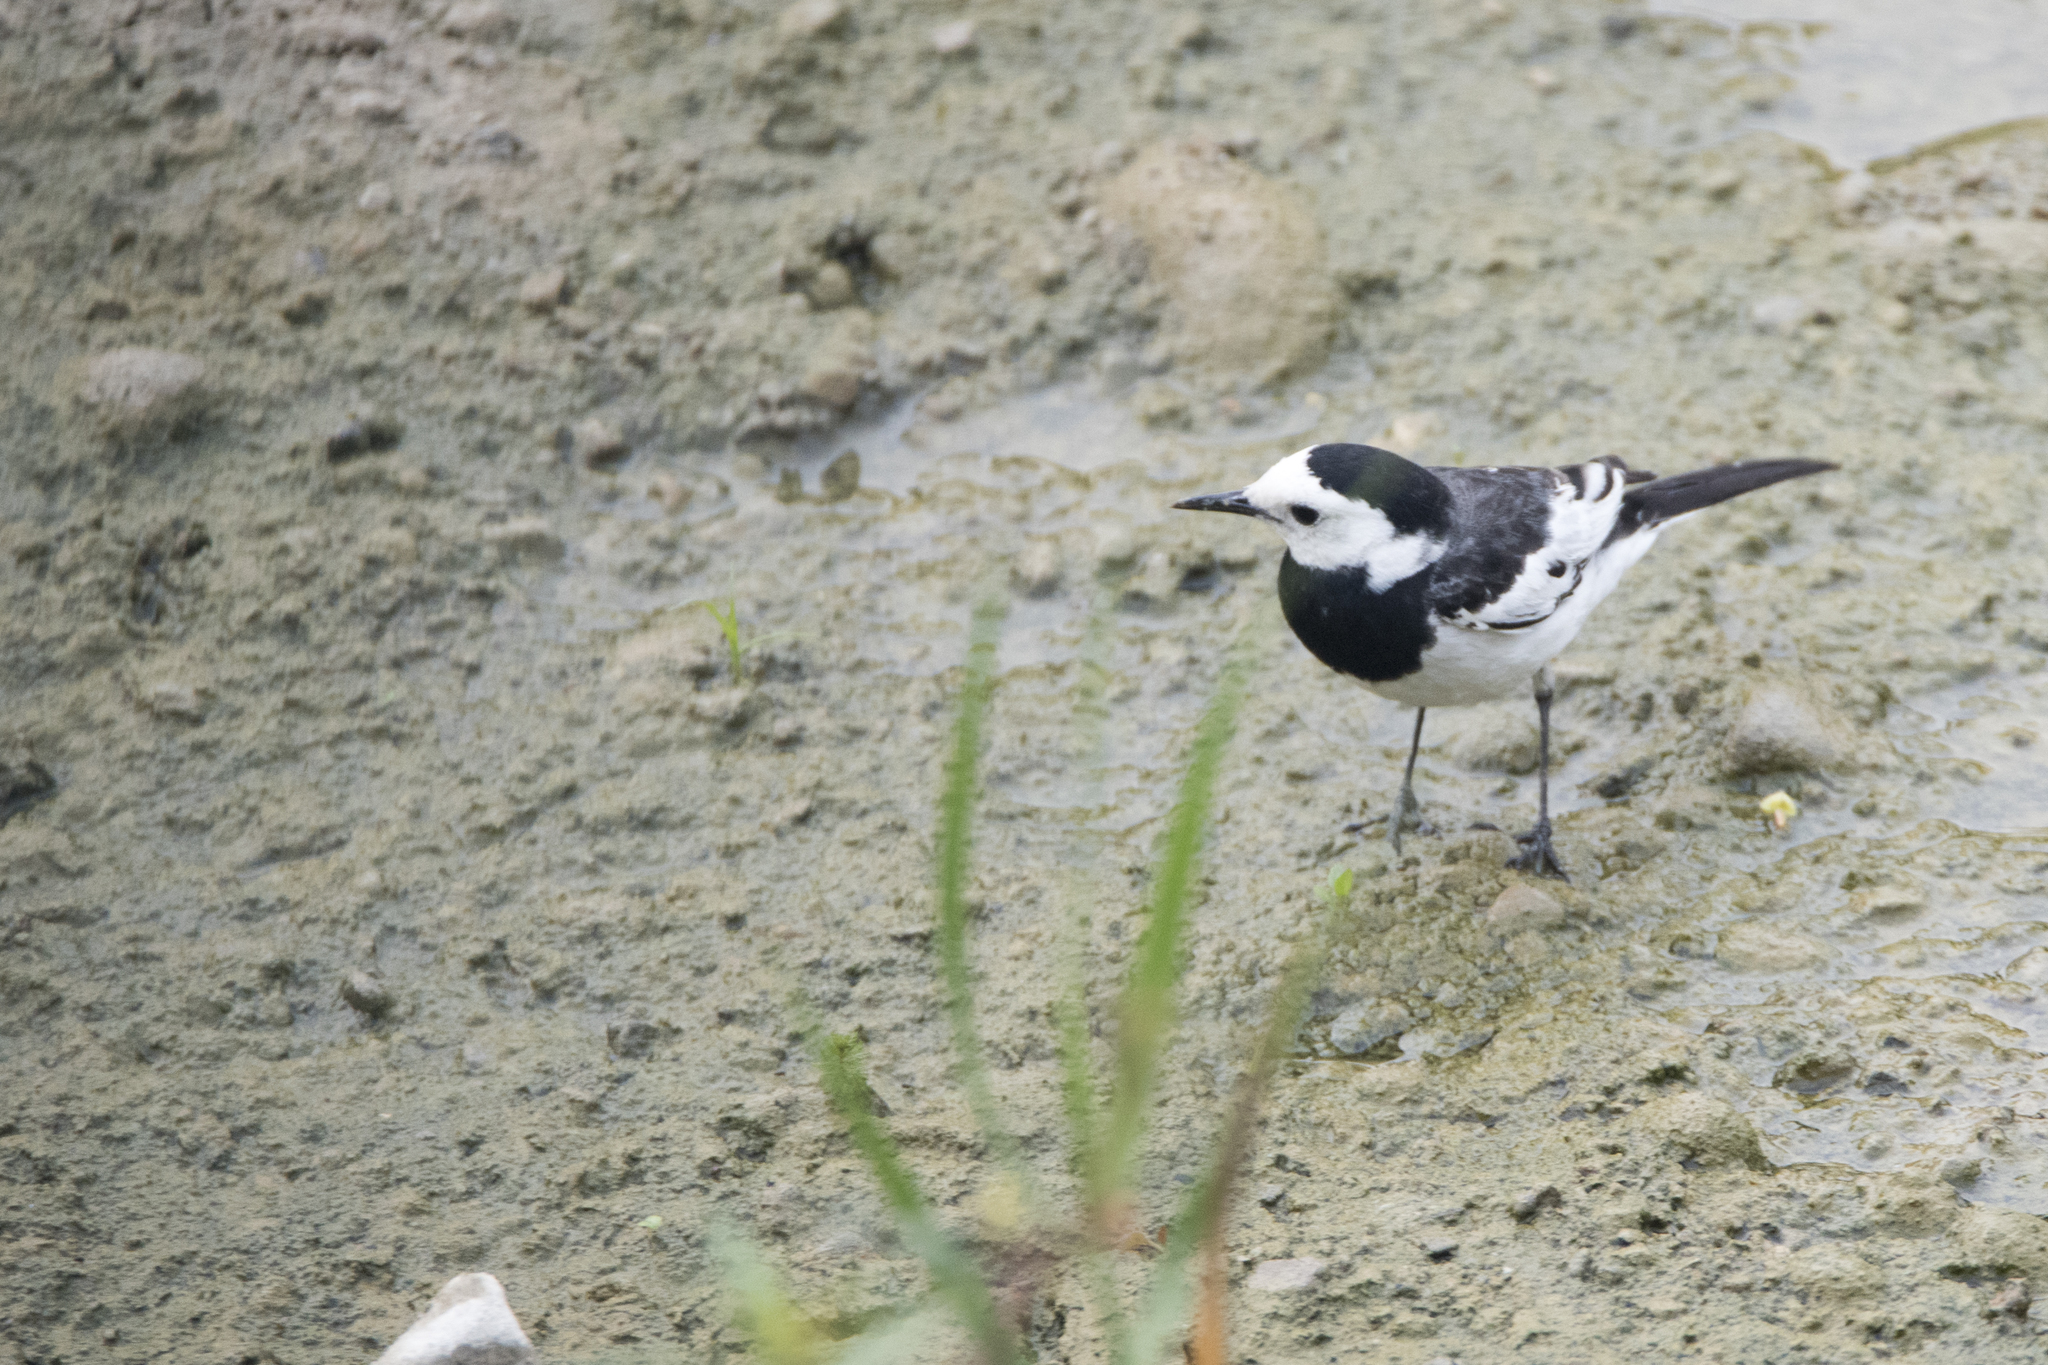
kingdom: Animalia
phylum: Chordata
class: Aves
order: Passeriformes
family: Motacillidae
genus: Motacilla
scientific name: Motacilla alba
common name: White wagtail
